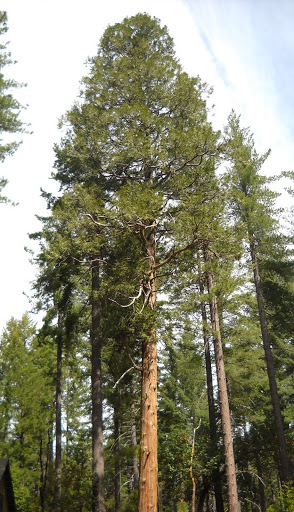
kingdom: Plantae
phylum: Tracheophyta
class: Pinopsida
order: Pinales
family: Cupressaceae
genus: Calocedrus
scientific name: Calocedrus decurrens
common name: Californian incense-cedar
